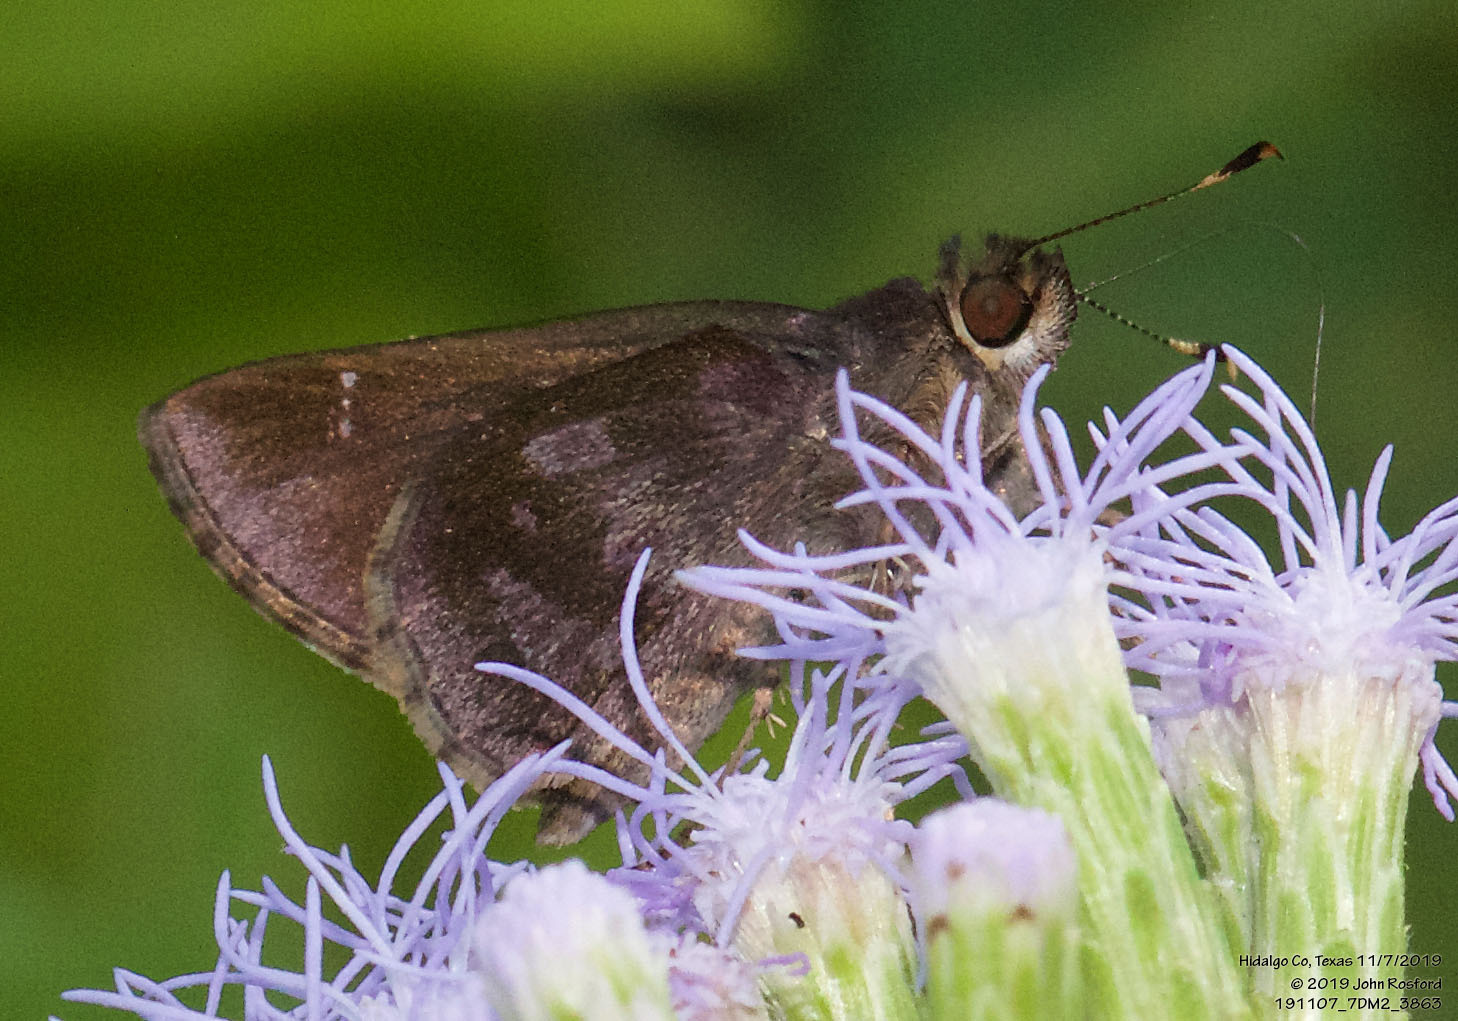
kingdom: Animalia
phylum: Arthropoda
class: Insecta
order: Lepidoptera
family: Hesperiidae
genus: Cymaenes
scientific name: Cymaenes
